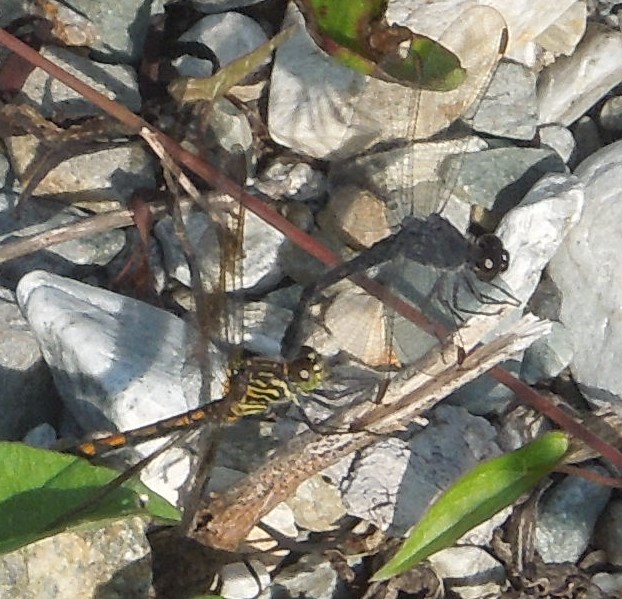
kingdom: Animalia
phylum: Arthropoda
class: Insecta
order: Odonata
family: Libellulidae
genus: Erythrodiplax
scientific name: Erythrodiplax berenice
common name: Seaside dragonlet
